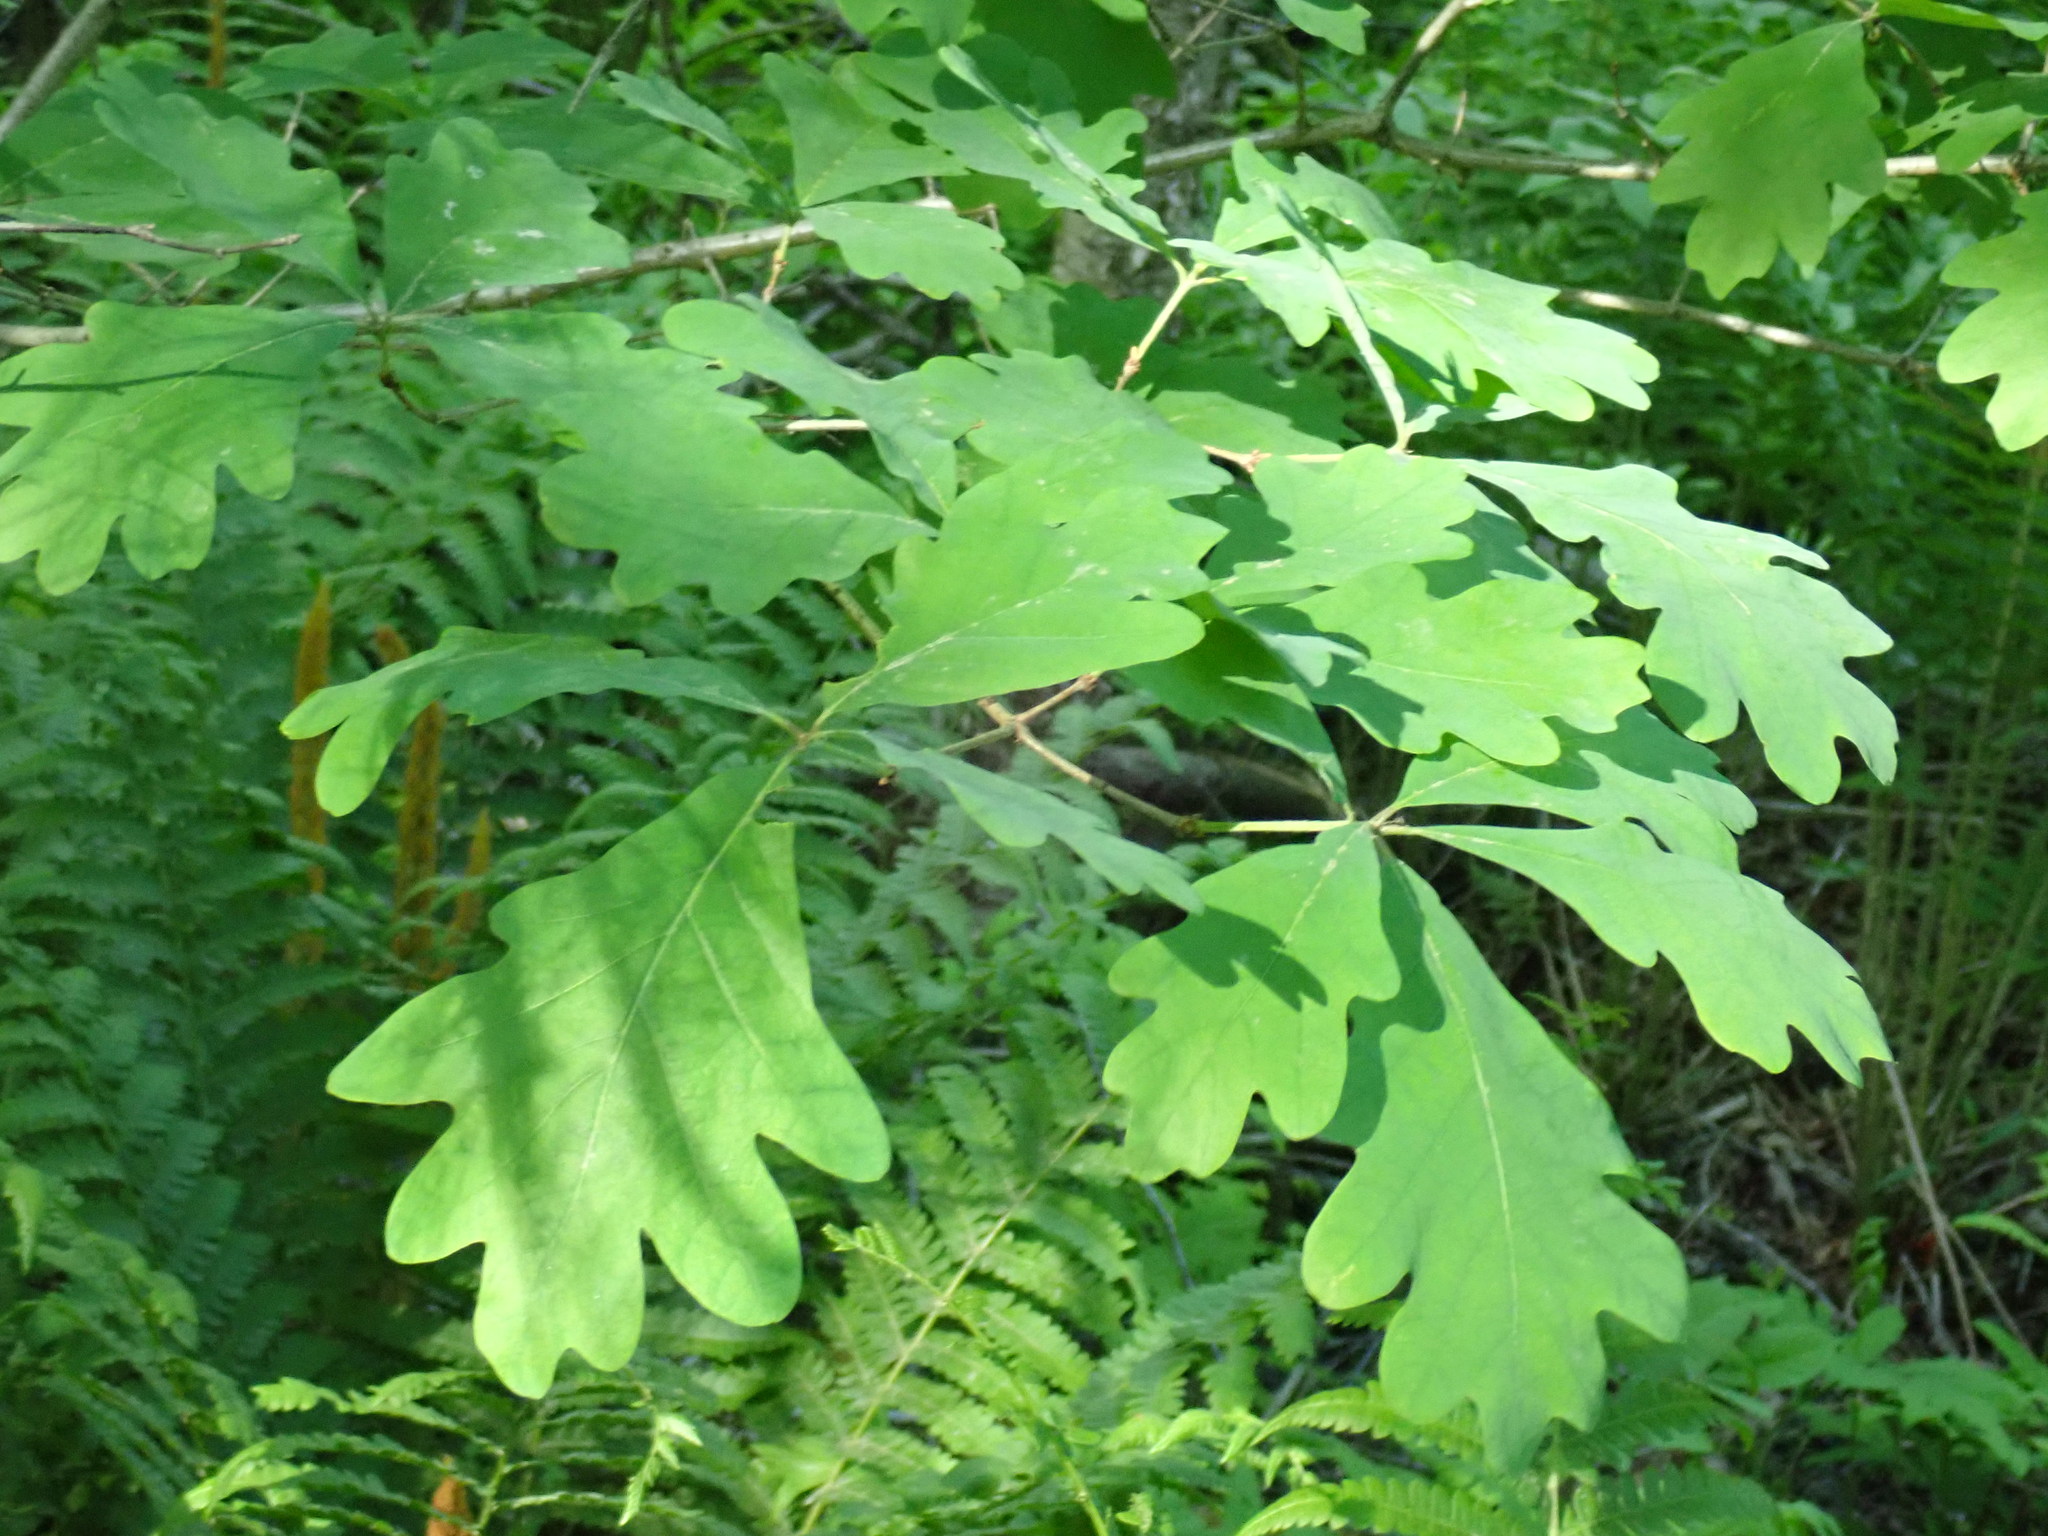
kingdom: Plantae
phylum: Tracheophyta
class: Magnoliopsida
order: Fagales
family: Fagaceae
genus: Quercus
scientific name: Quercus alba
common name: White oak
